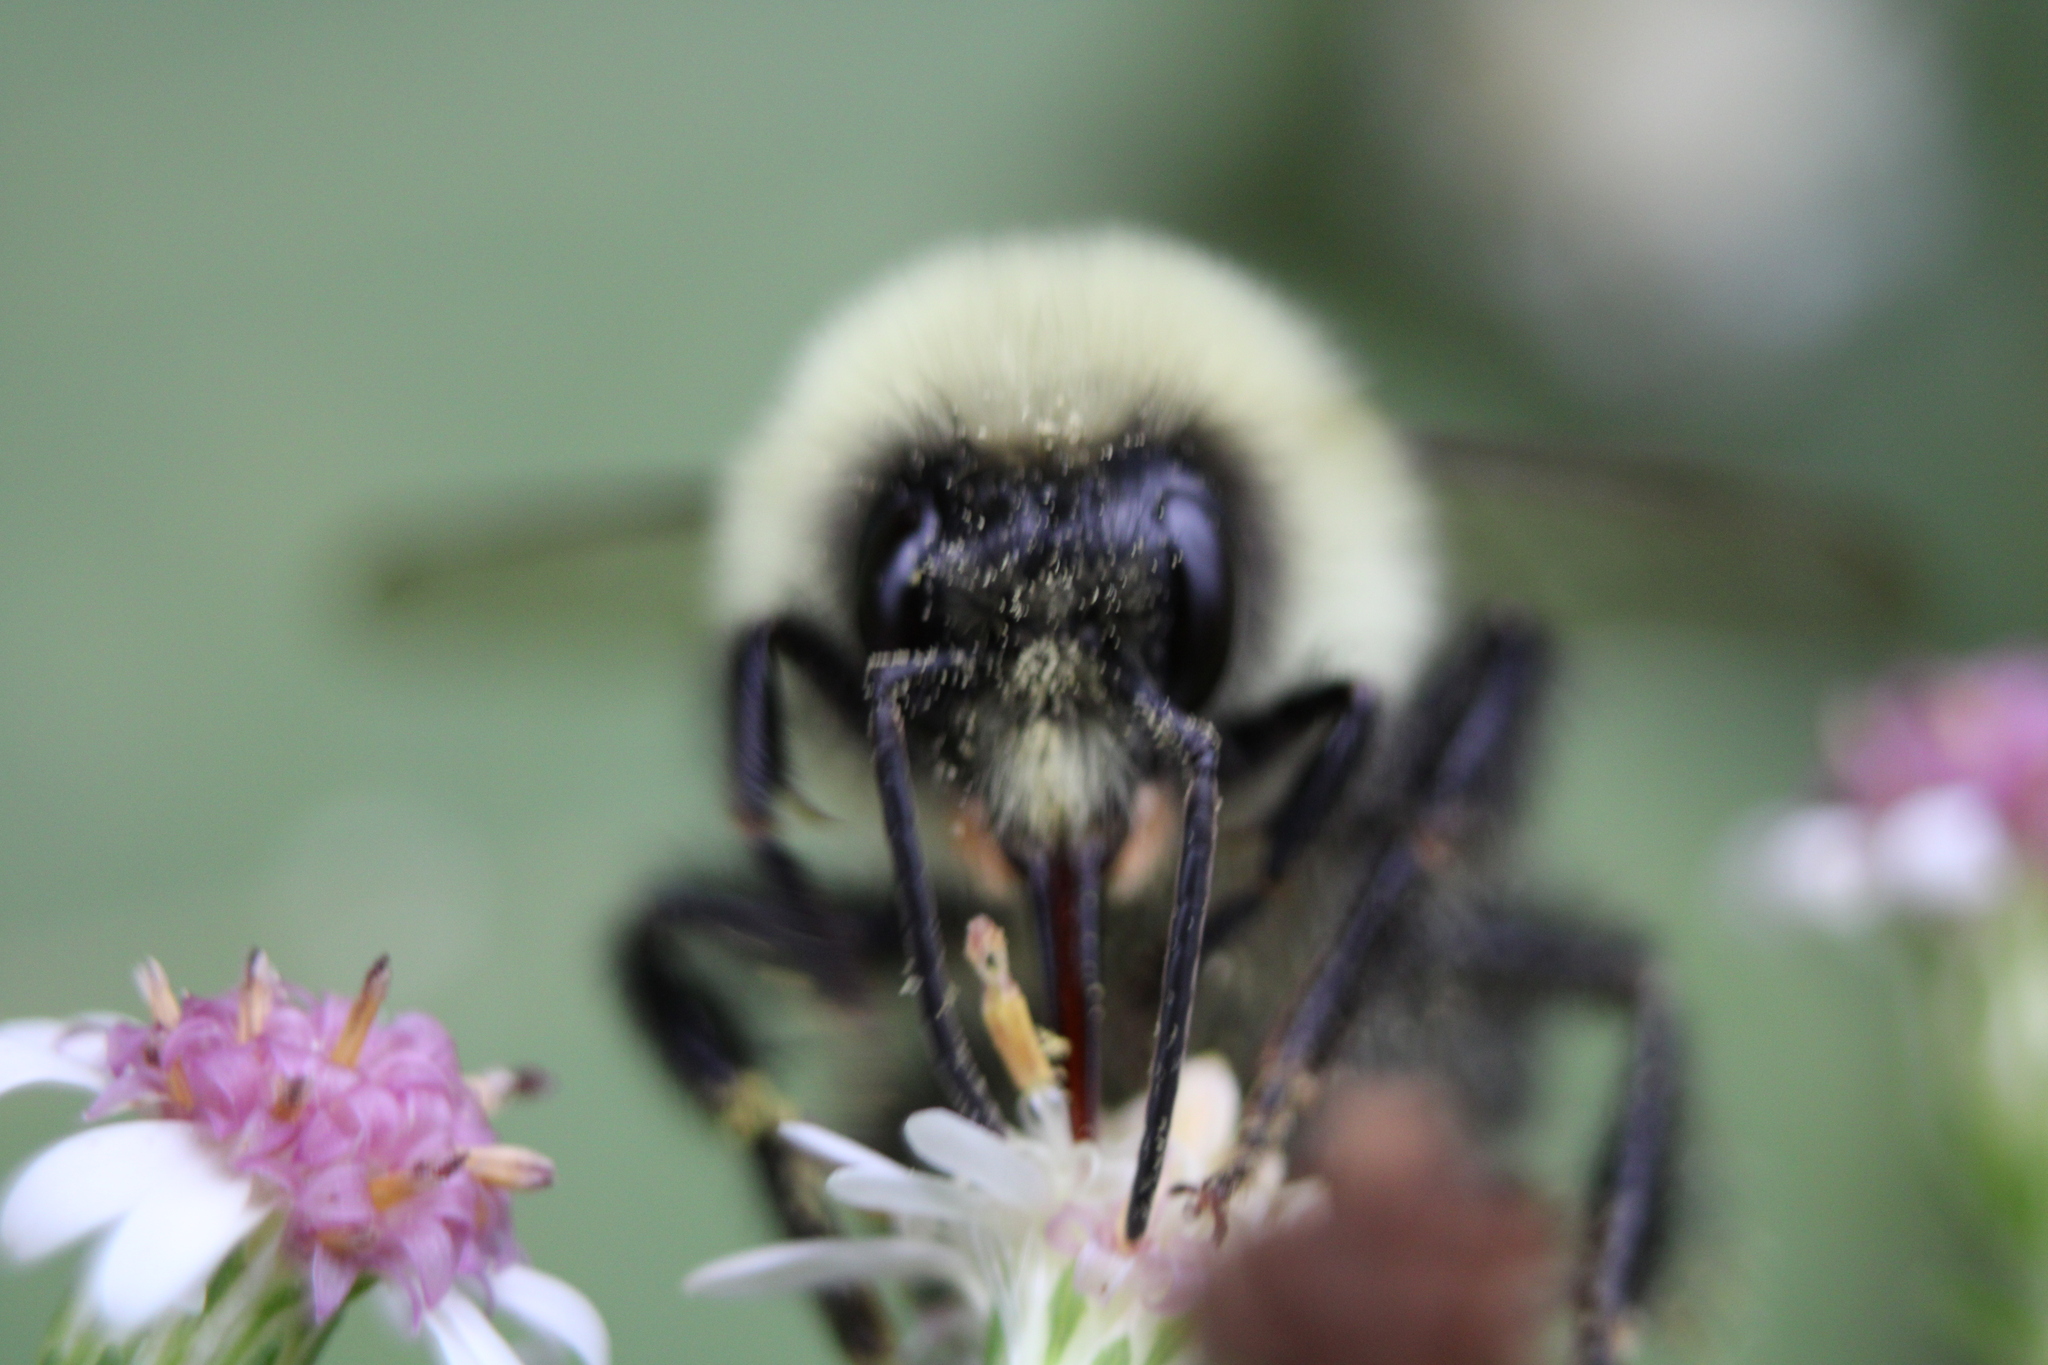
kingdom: Animalia
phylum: Arthropoda
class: Insecta
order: Hymenoptera
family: Apidae
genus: Bombus
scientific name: Bombus impatiens
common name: Common eastern bumble bee
